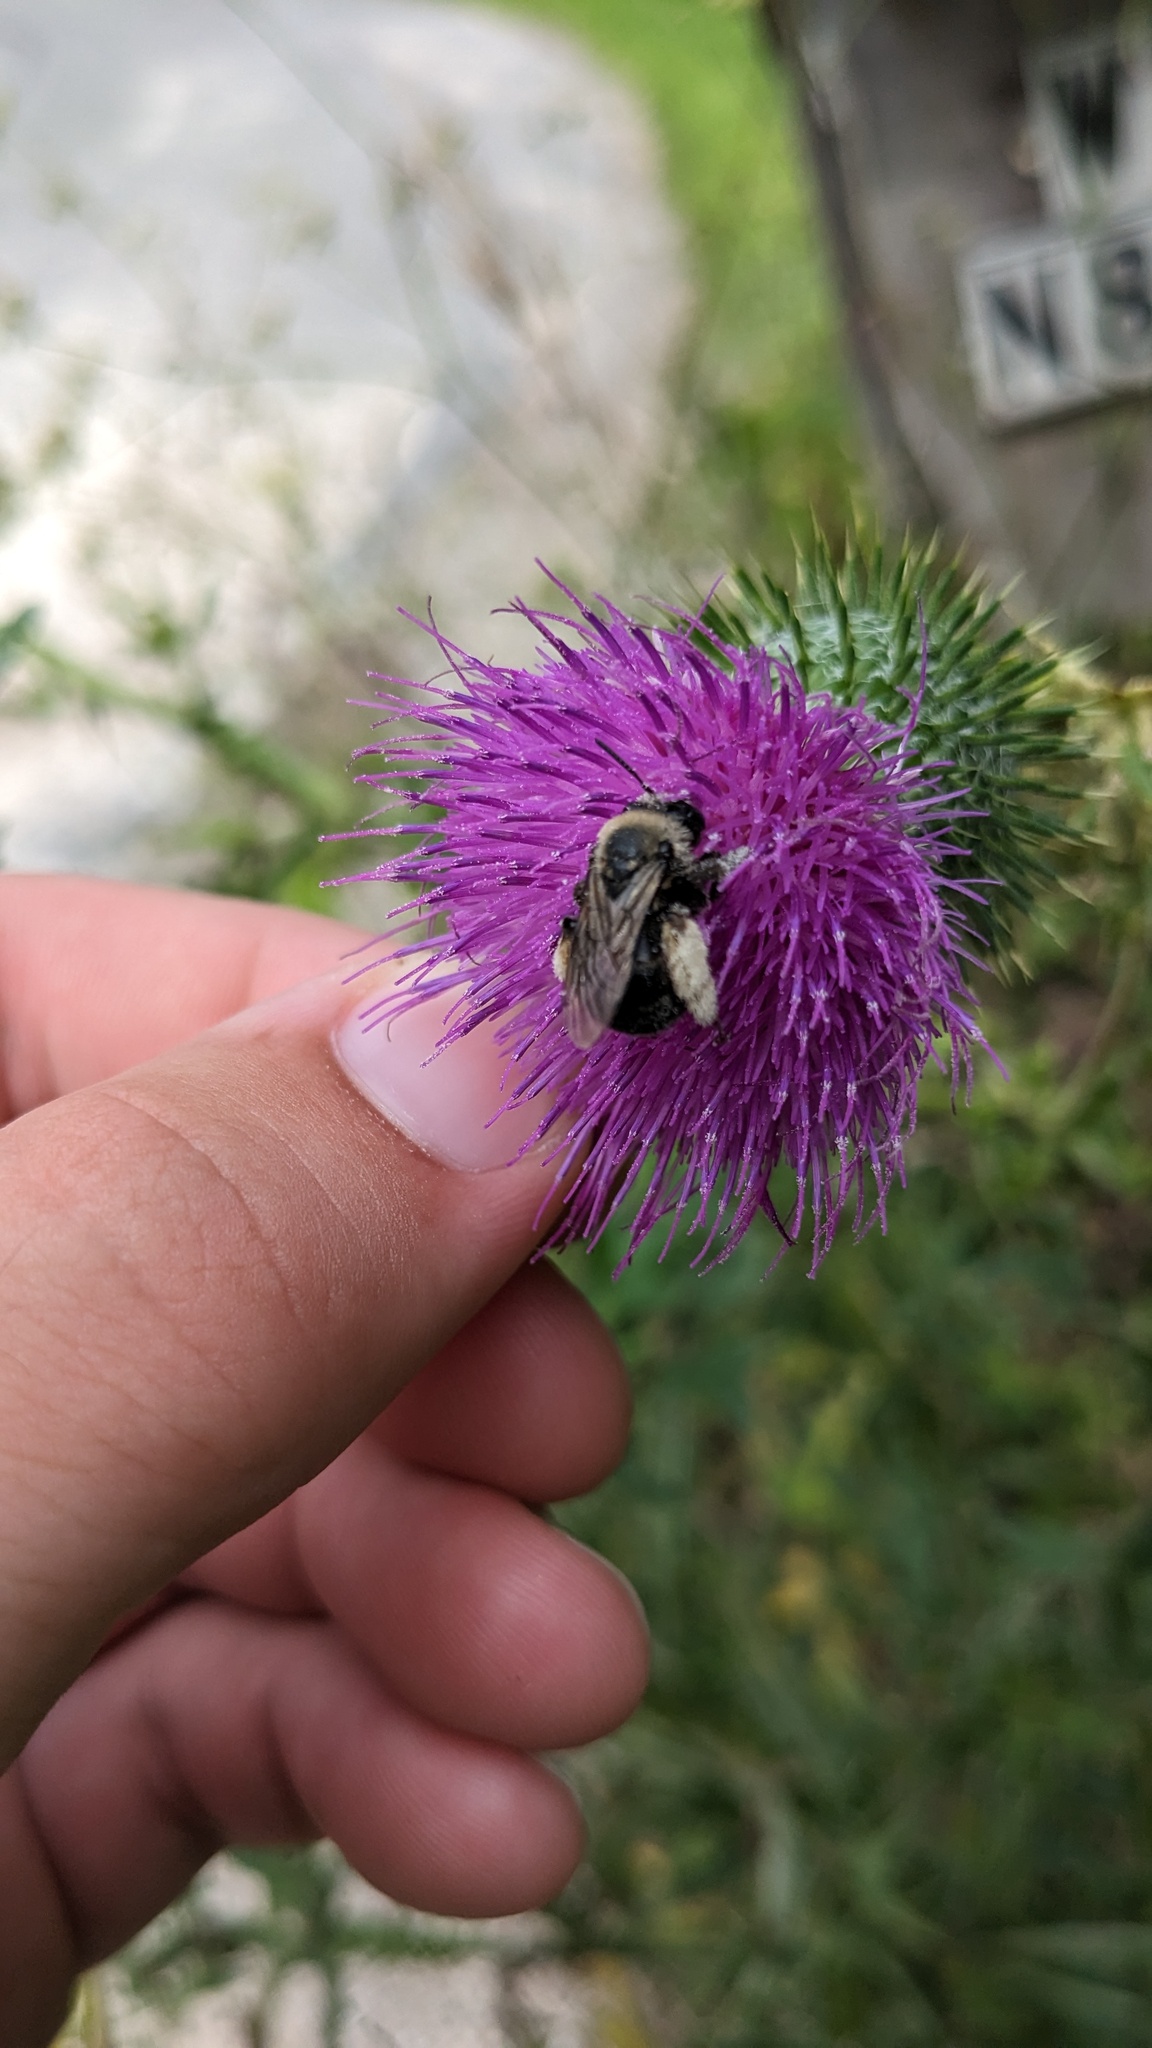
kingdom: Plantae
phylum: Tracheophyta
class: Magnoliopsida
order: Asterales
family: Asteraceae
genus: Cirsium
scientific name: Cirsium vulgare
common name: Bull thistle
